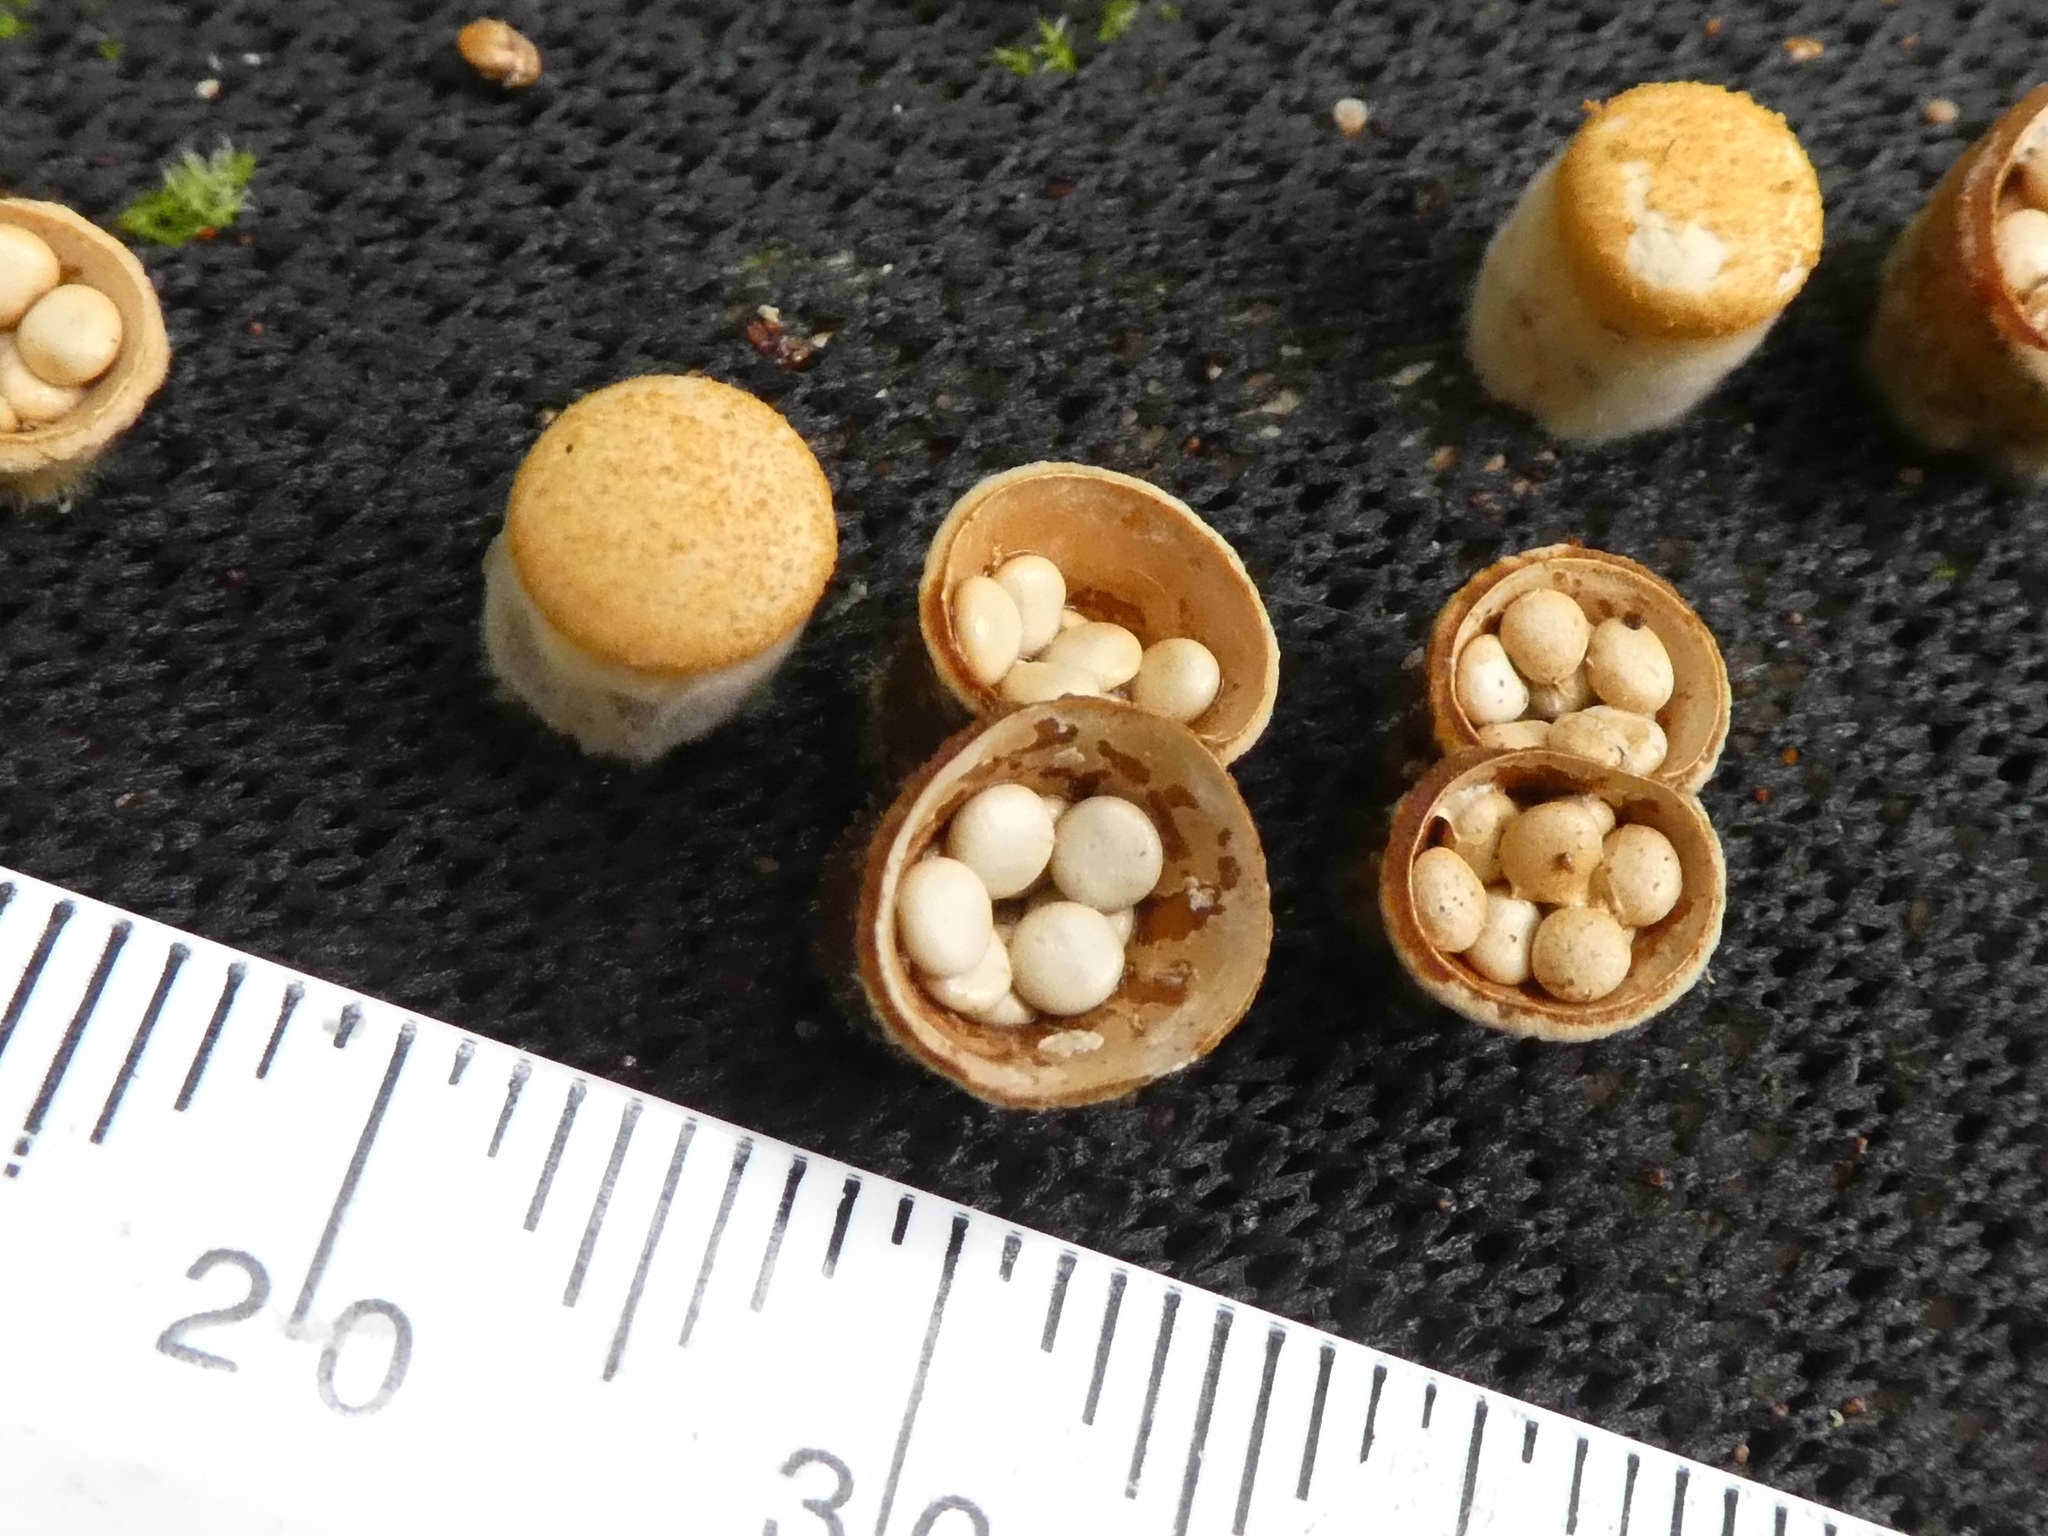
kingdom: Fungi
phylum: Basidiomycota
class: Agaricomycetes
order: Agaricales
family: Nidulariaceae
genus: Crucibulum
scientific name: Crucibulum simile
